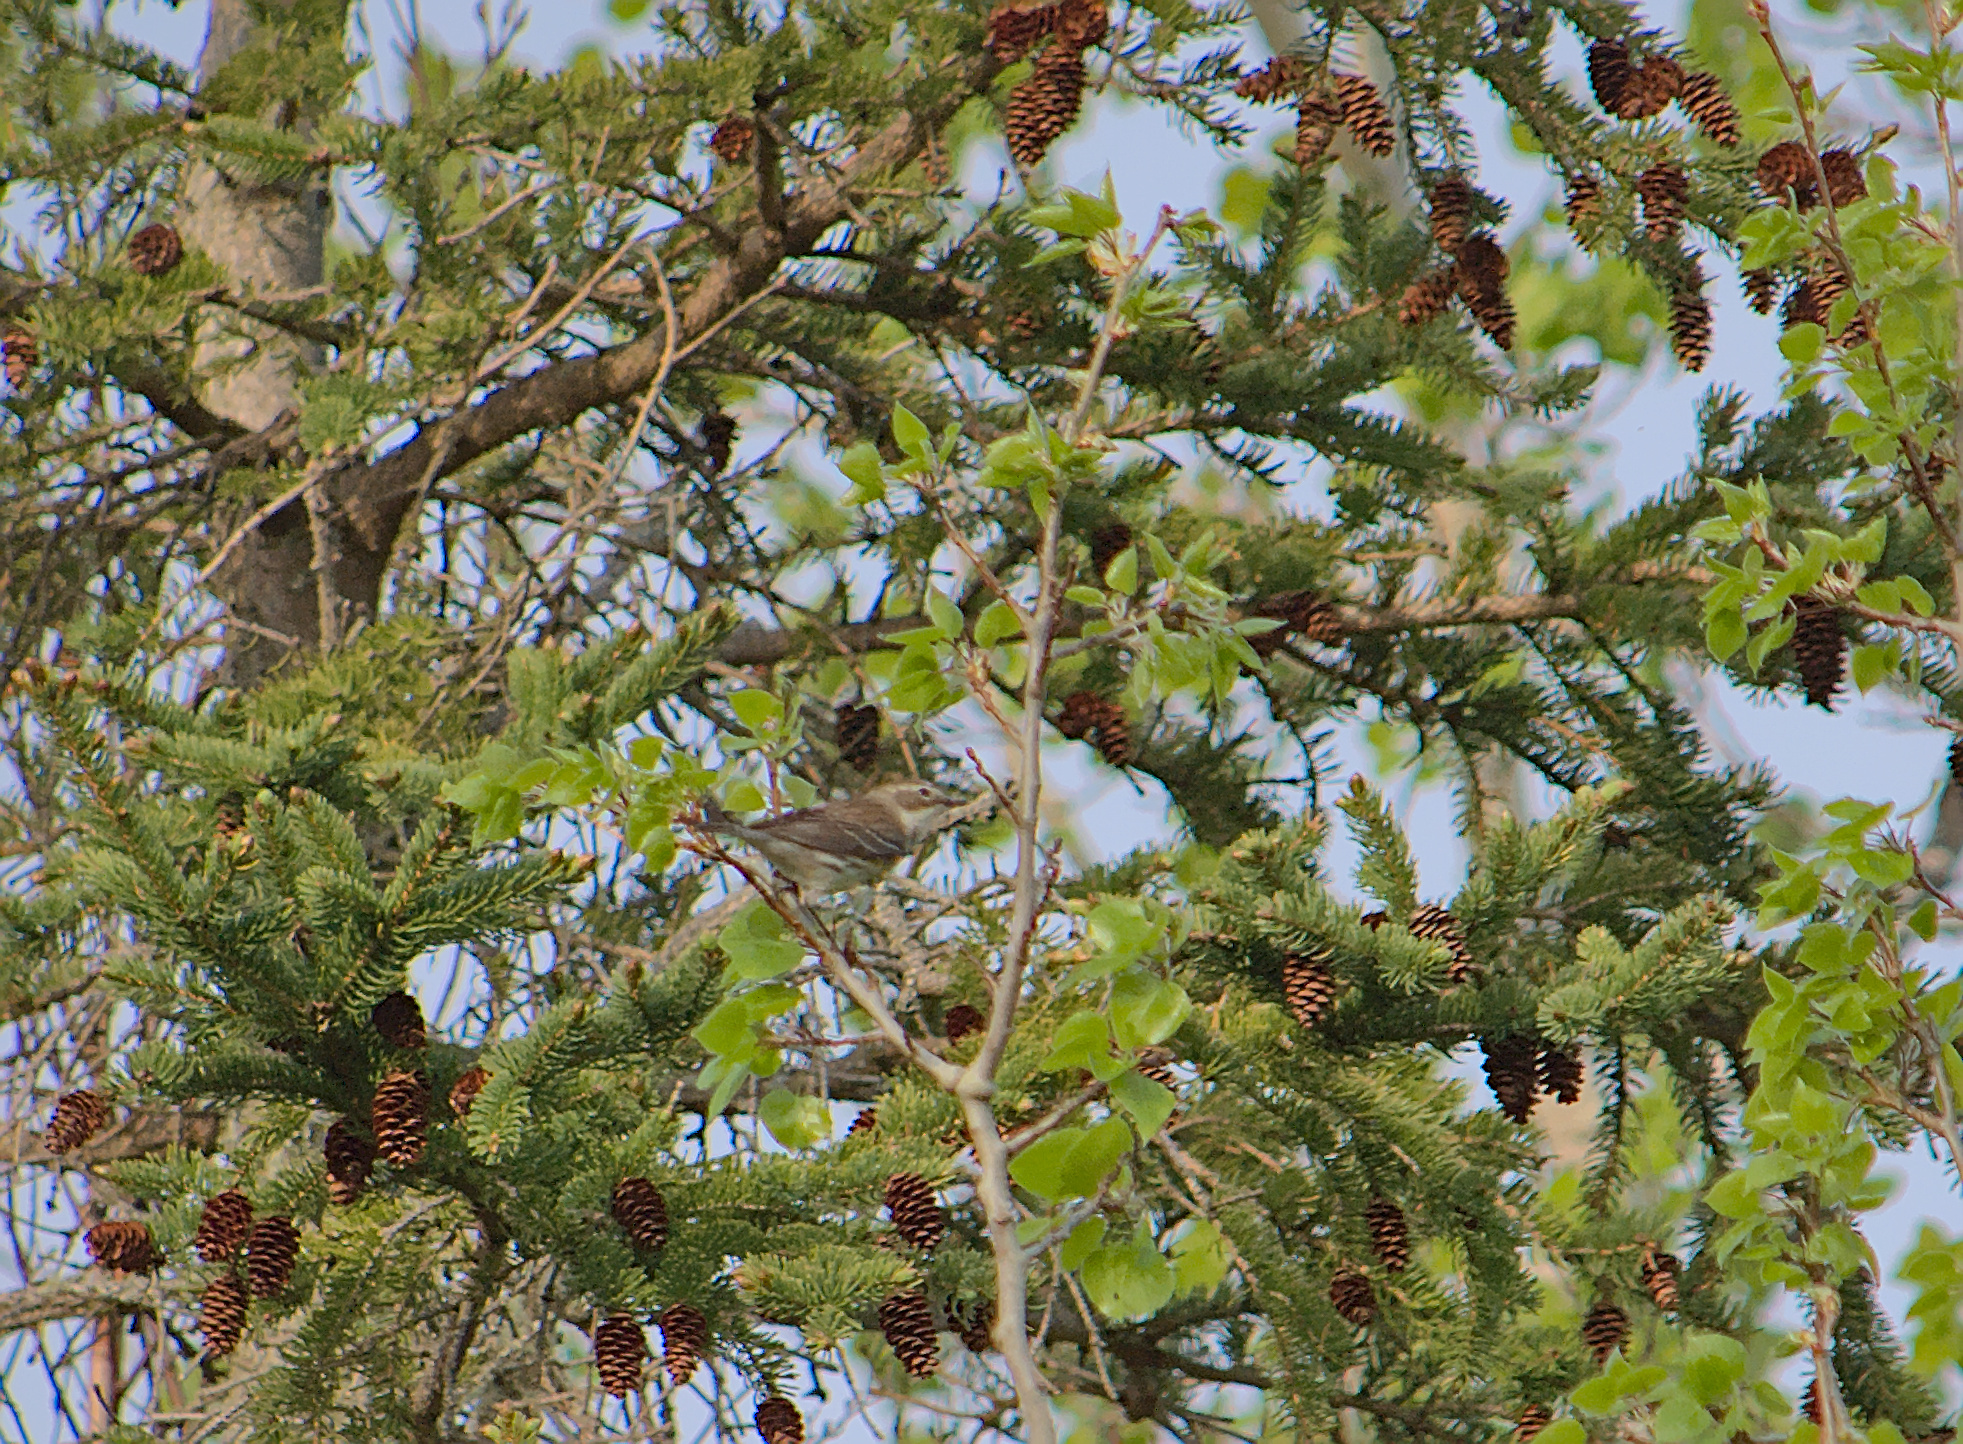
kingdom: Animalia
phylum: Chordata
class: Aves
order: Passeriformes
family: Parulidae
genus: Setophaga
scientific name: Setophaga coronata
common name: Myrtle warbler
